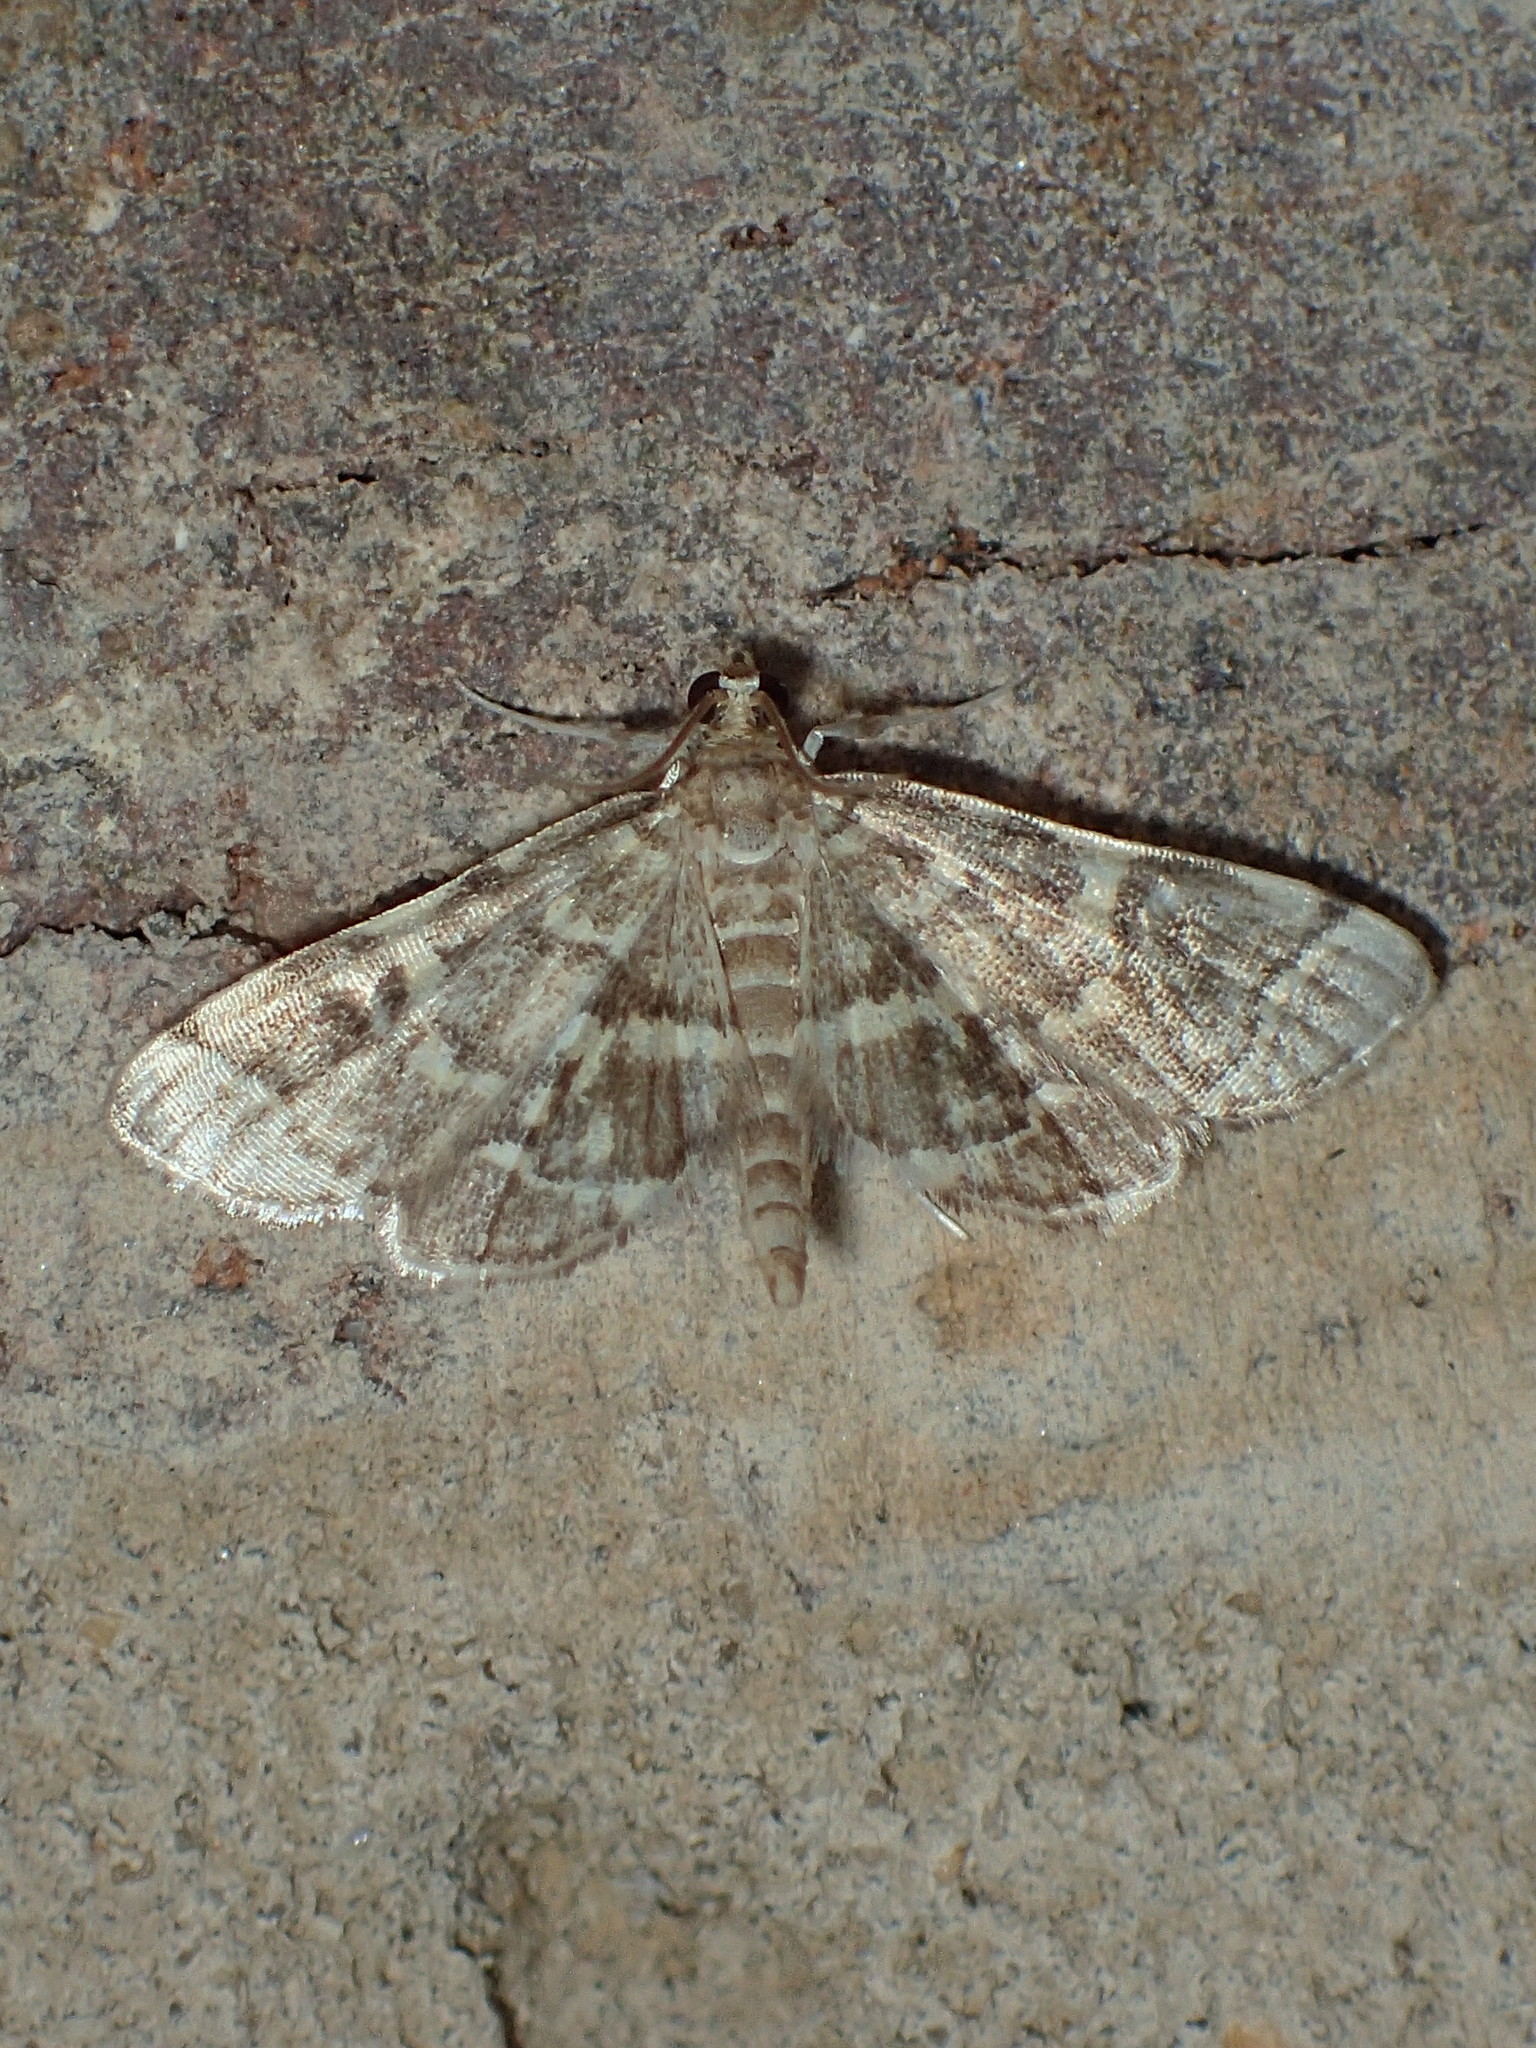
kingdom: Animalia
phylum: Arthropoda
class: Insecta
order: Lepidoptera
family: Crambidae
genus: Anageshna
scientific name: Anageshna primordialis
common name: Yellow-spotted webworm moth
